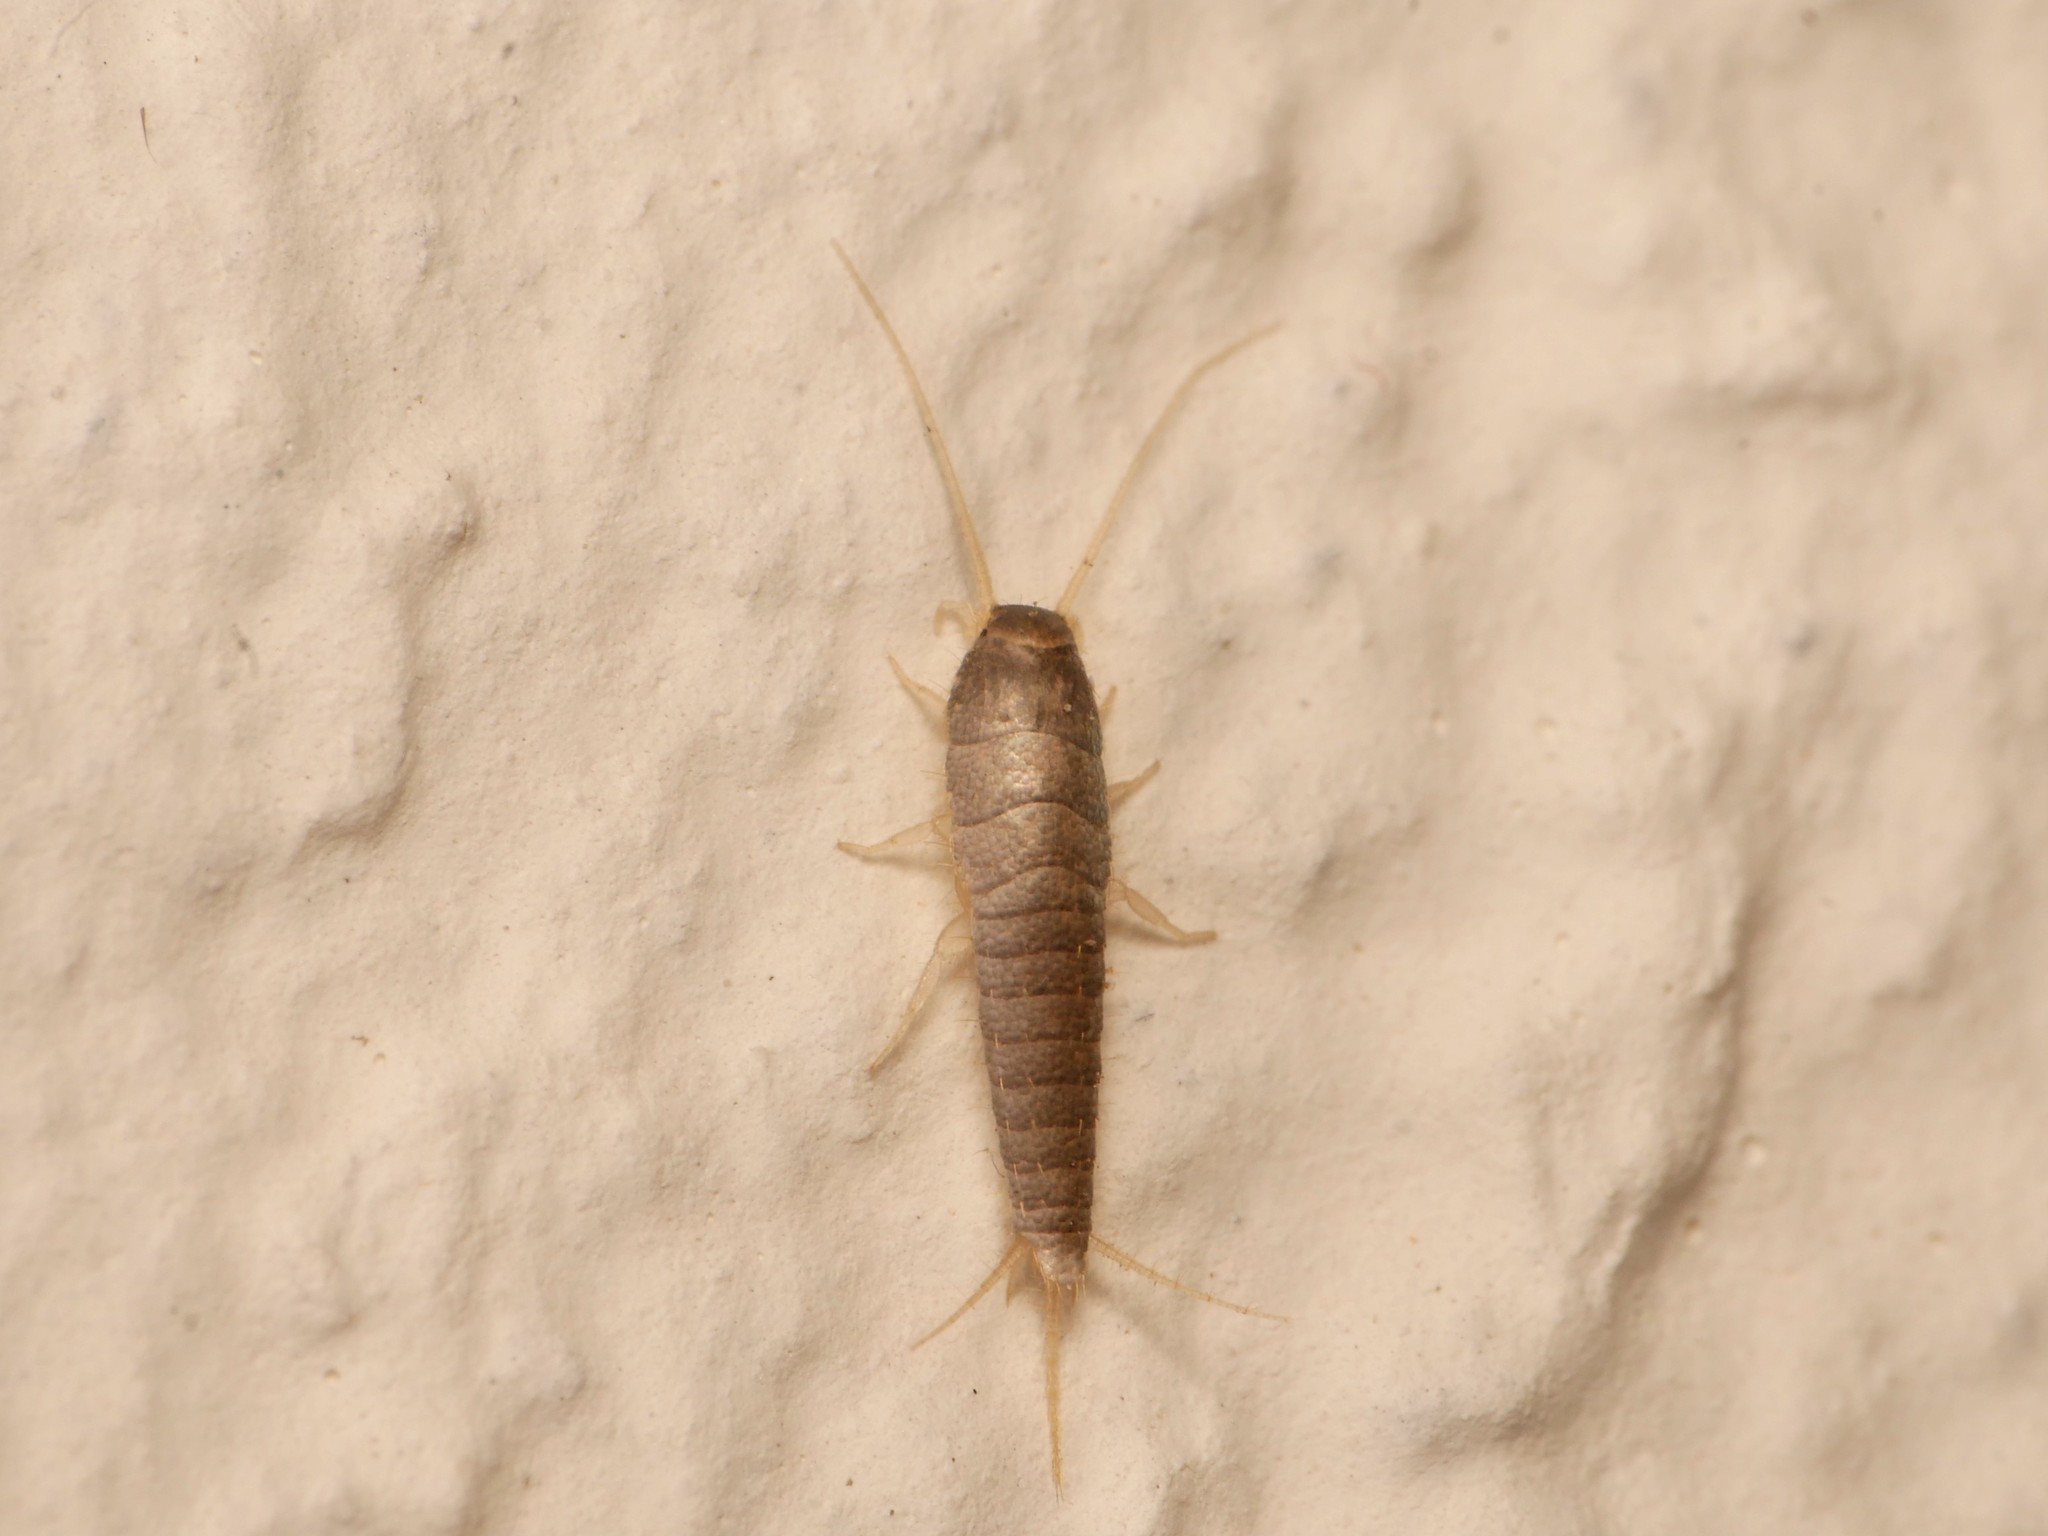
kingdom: Animalia
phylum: Arthropoda
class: Insecta
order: Zygentoma
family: Lepismatidae
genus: Lepisma
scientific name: Lepisma saccharinum
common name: Silverfish
